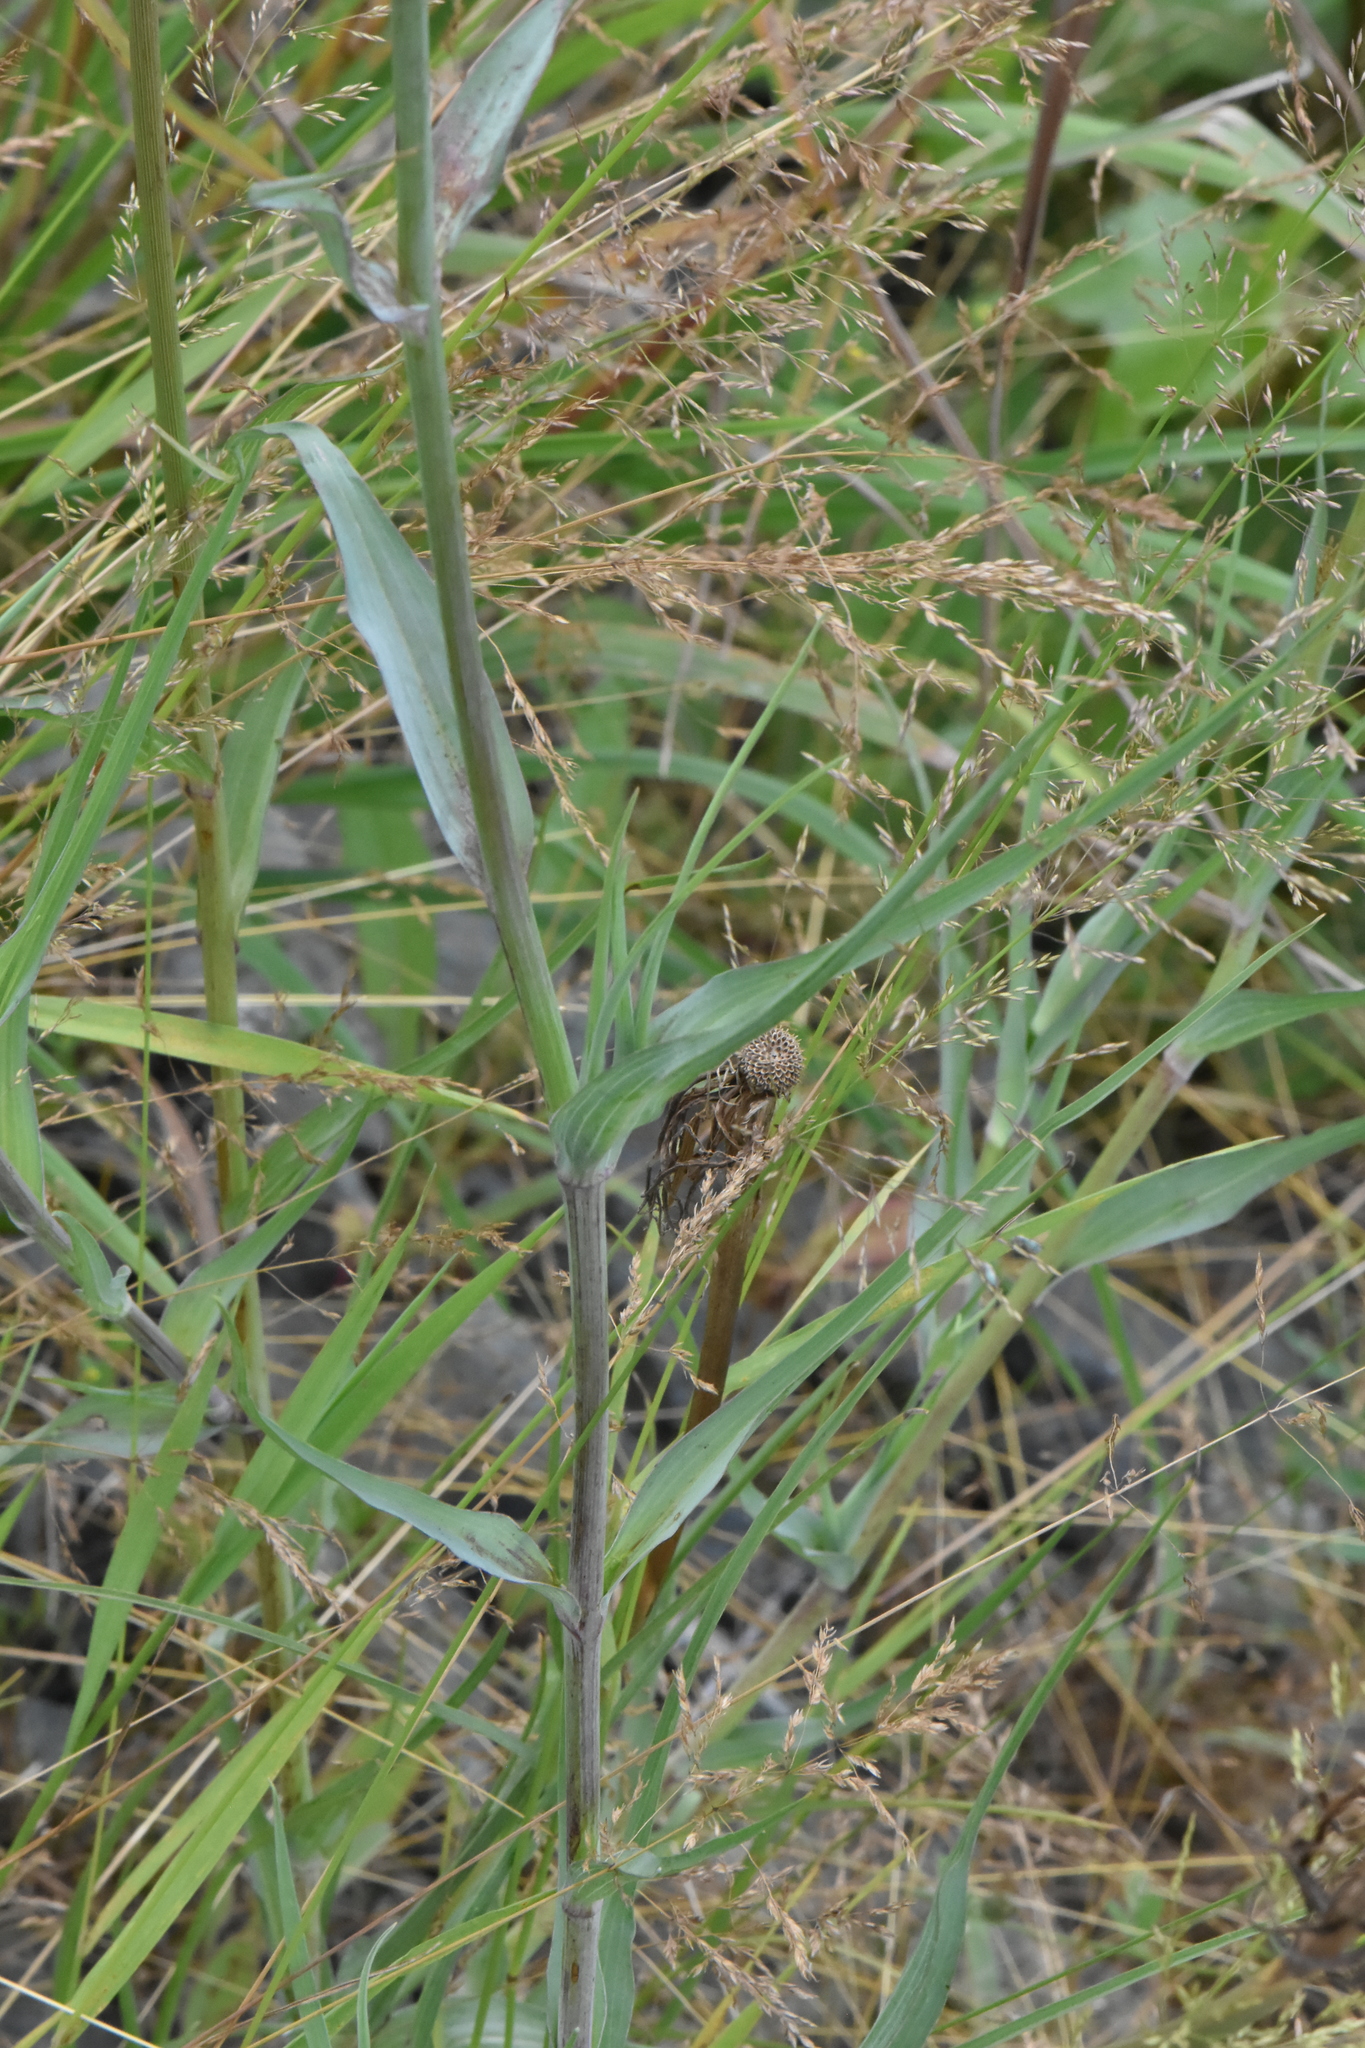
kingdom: Plantae
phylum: Tracheophyta
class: Magnoliopsida
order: Asterales
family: Asteraceae
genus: Pentanema
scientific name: Pentanema salicinum
